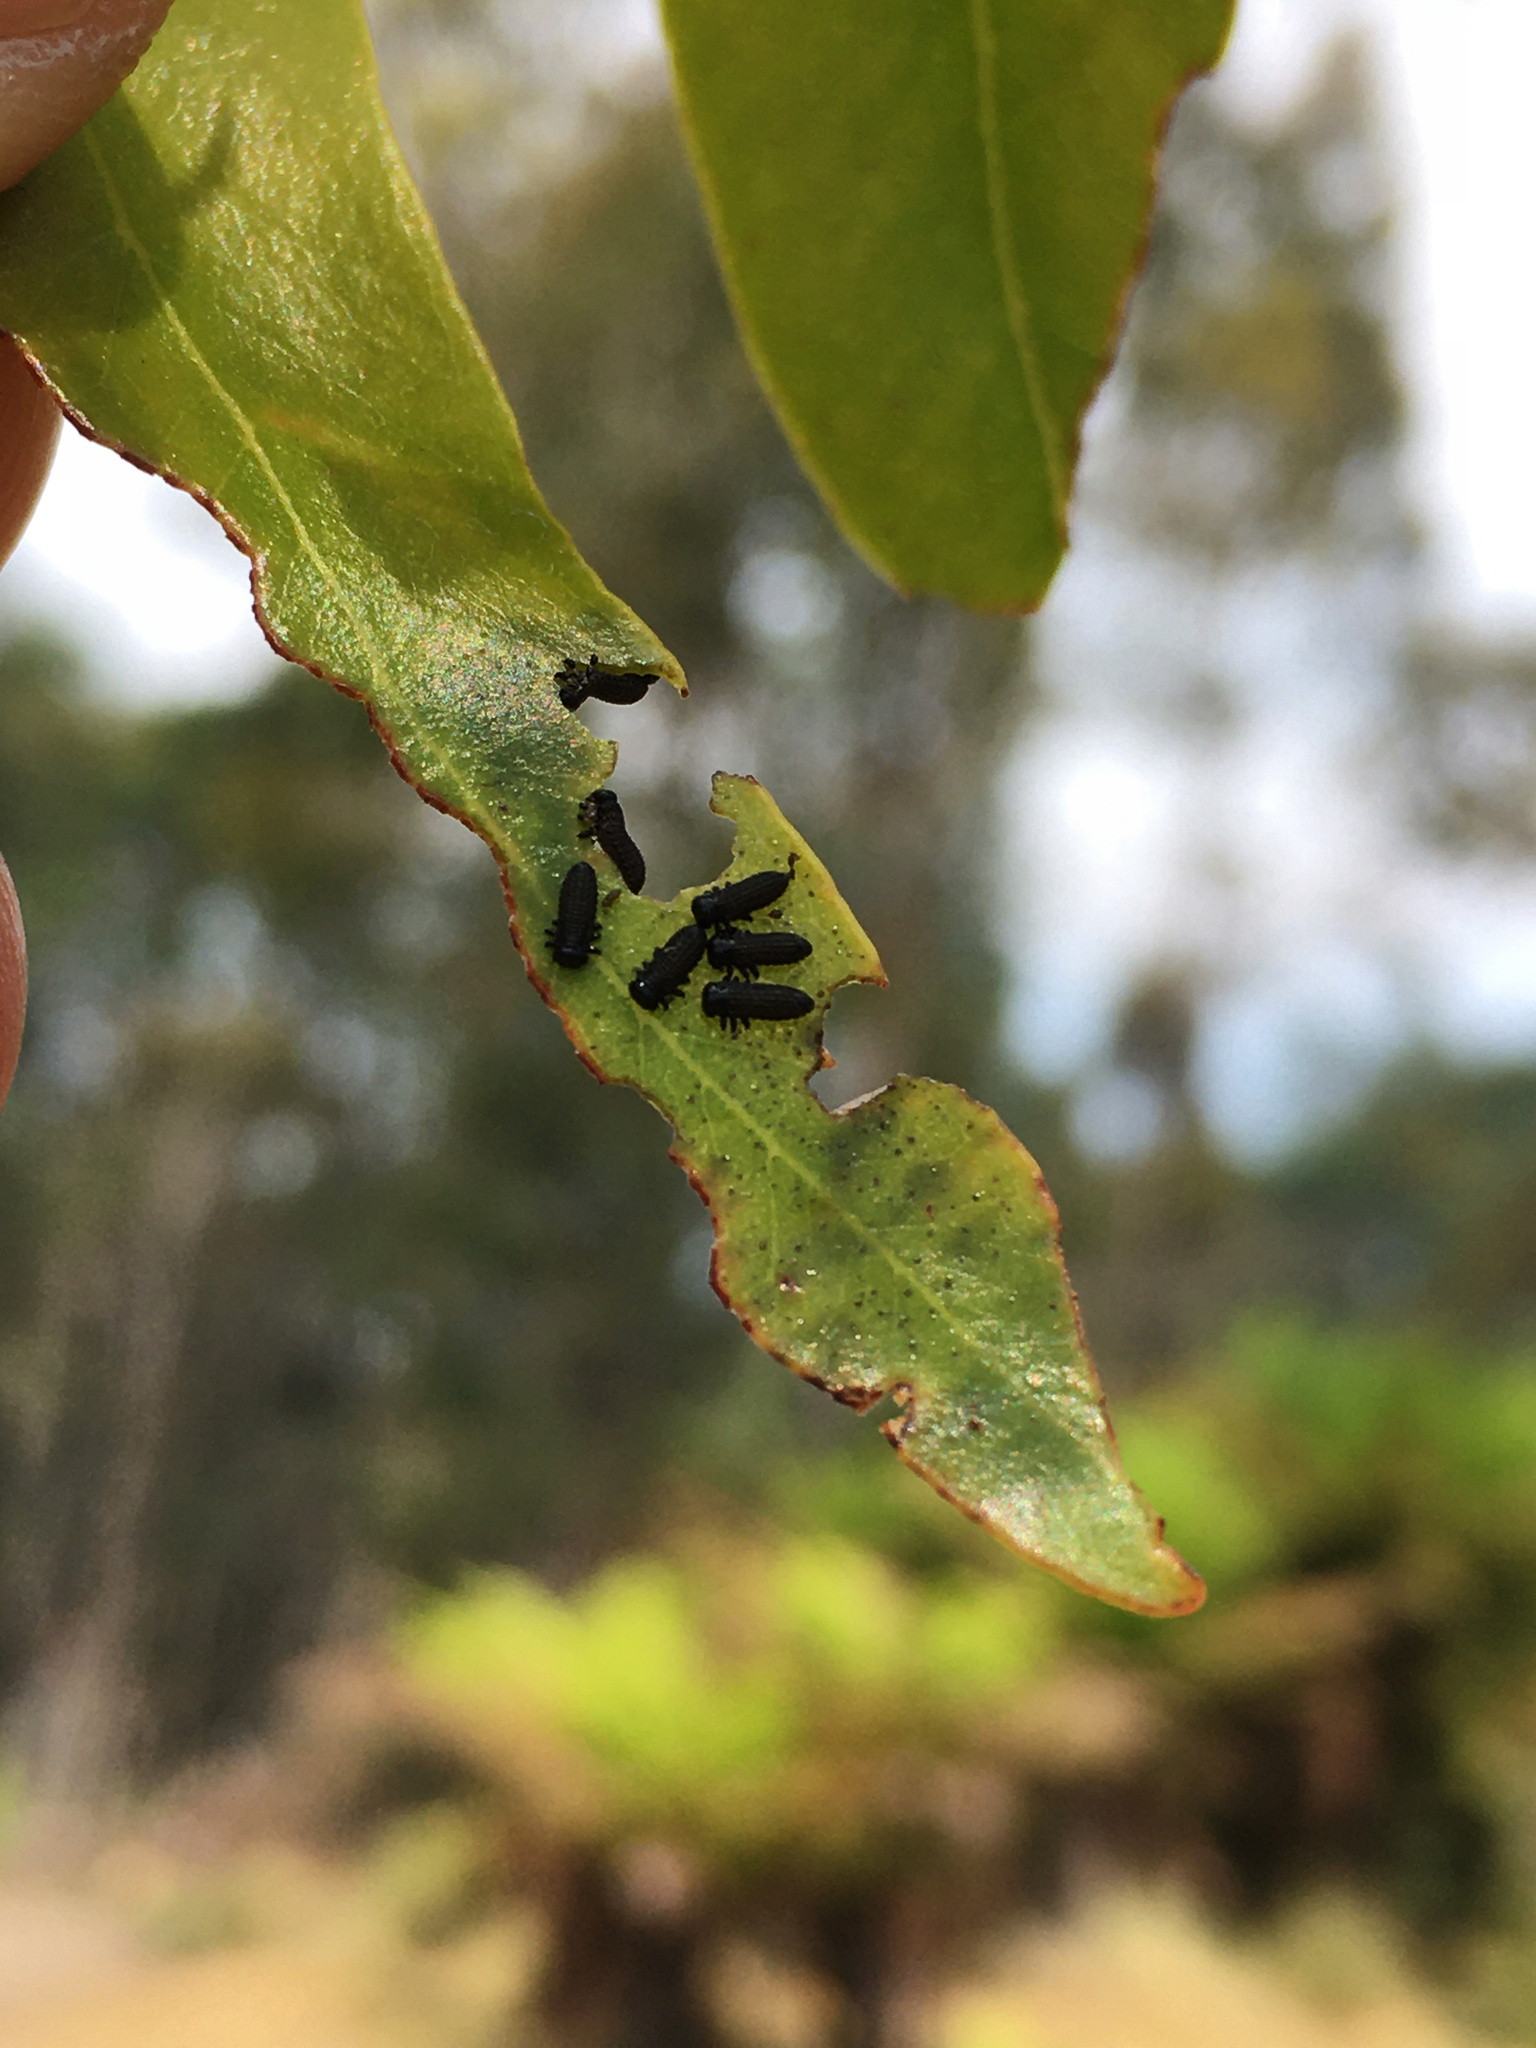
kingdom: Animalia
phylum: Arthropoda
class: Insecta
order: Coleoptera
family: Chrysomelidae
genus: Paropsisterna
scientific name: Paropsisterna agricola
